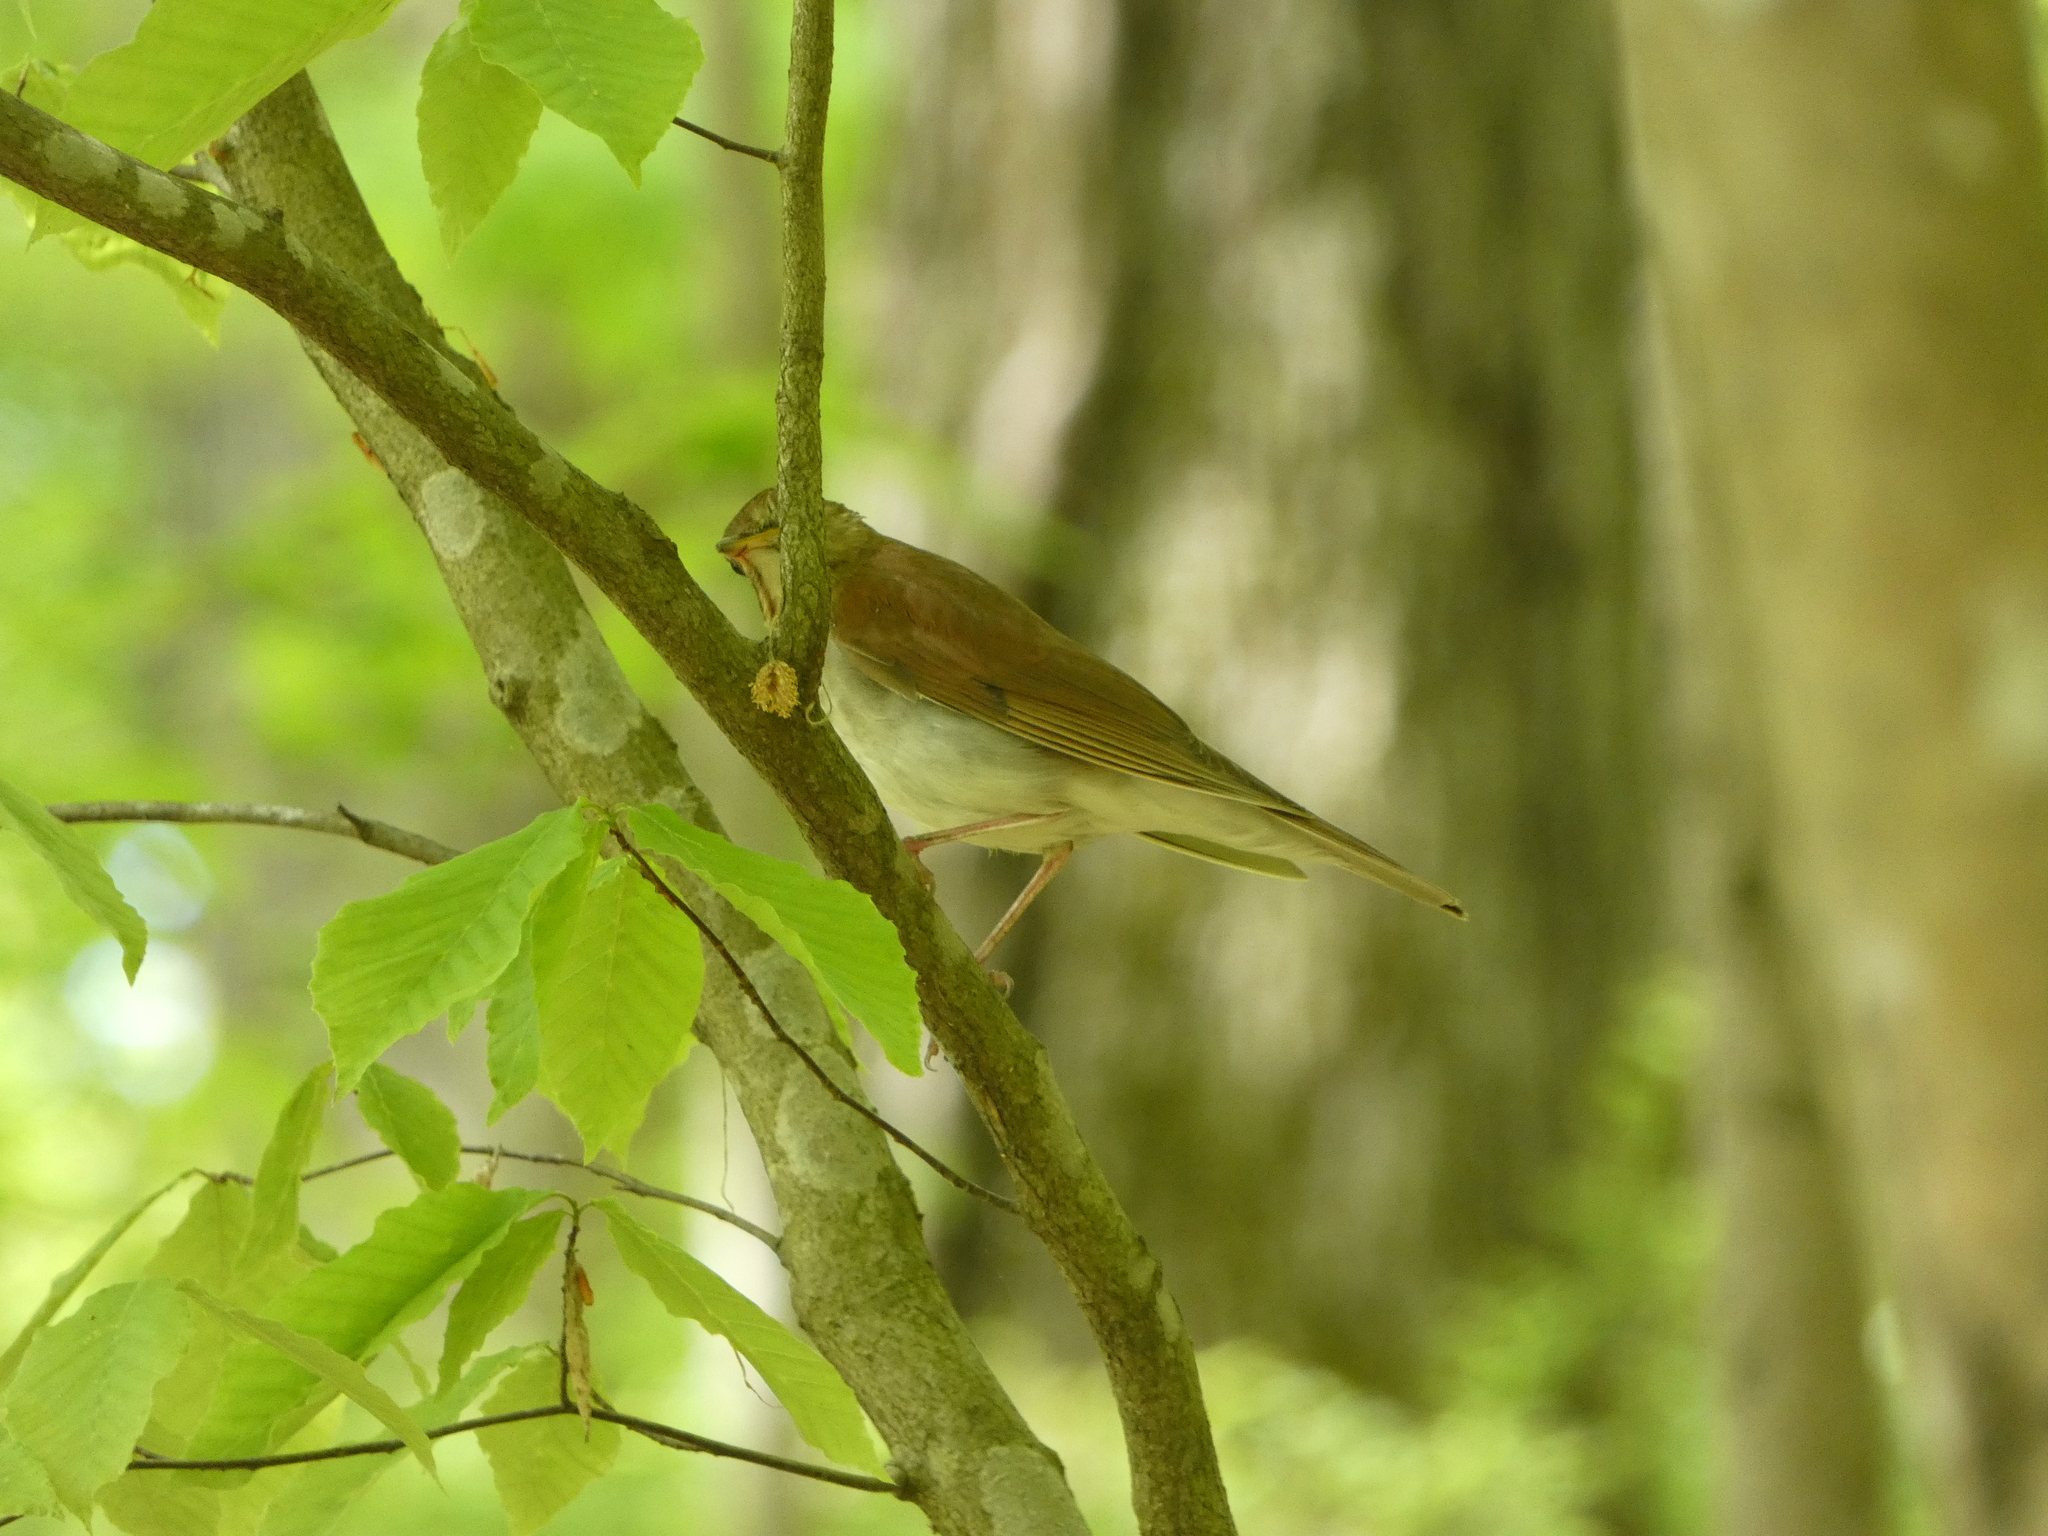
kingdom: Animalia
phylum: Chordata
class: Aves
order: Passeriformes
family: Turdidae
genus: Catharus
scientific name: Catharus fuscescens
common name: Veery
